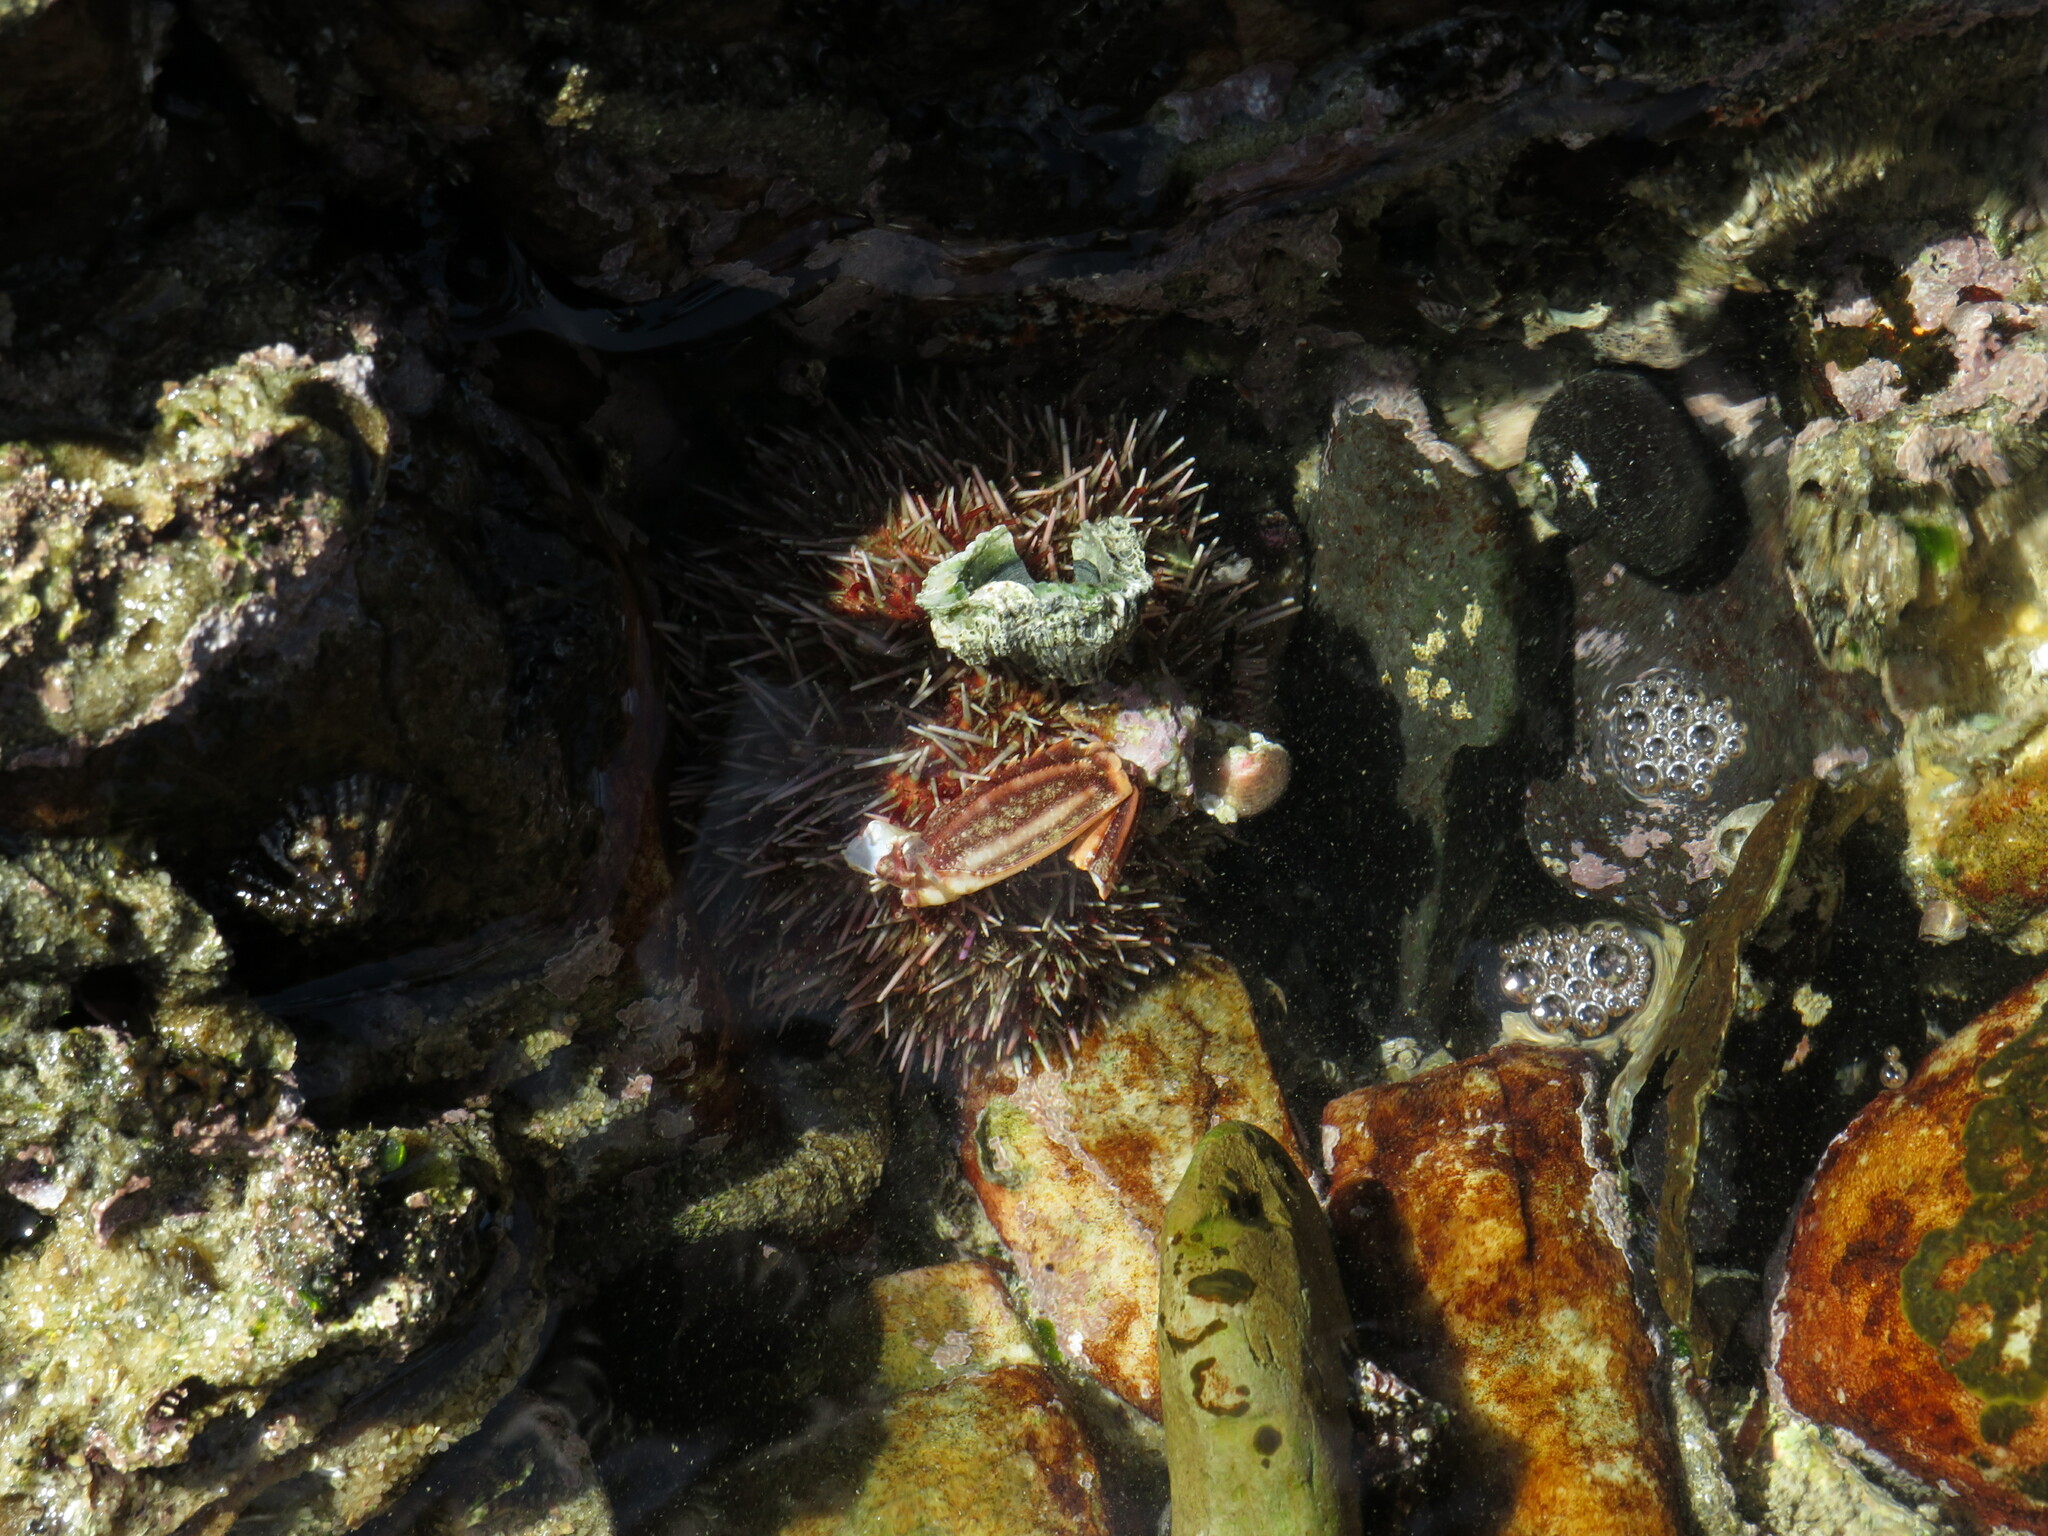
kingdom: Animalia
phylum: Arthropoda
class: Malacostraca
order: Decapoda
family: Plagusiidae
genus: Guinusia
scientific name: Guinusia chabrus
